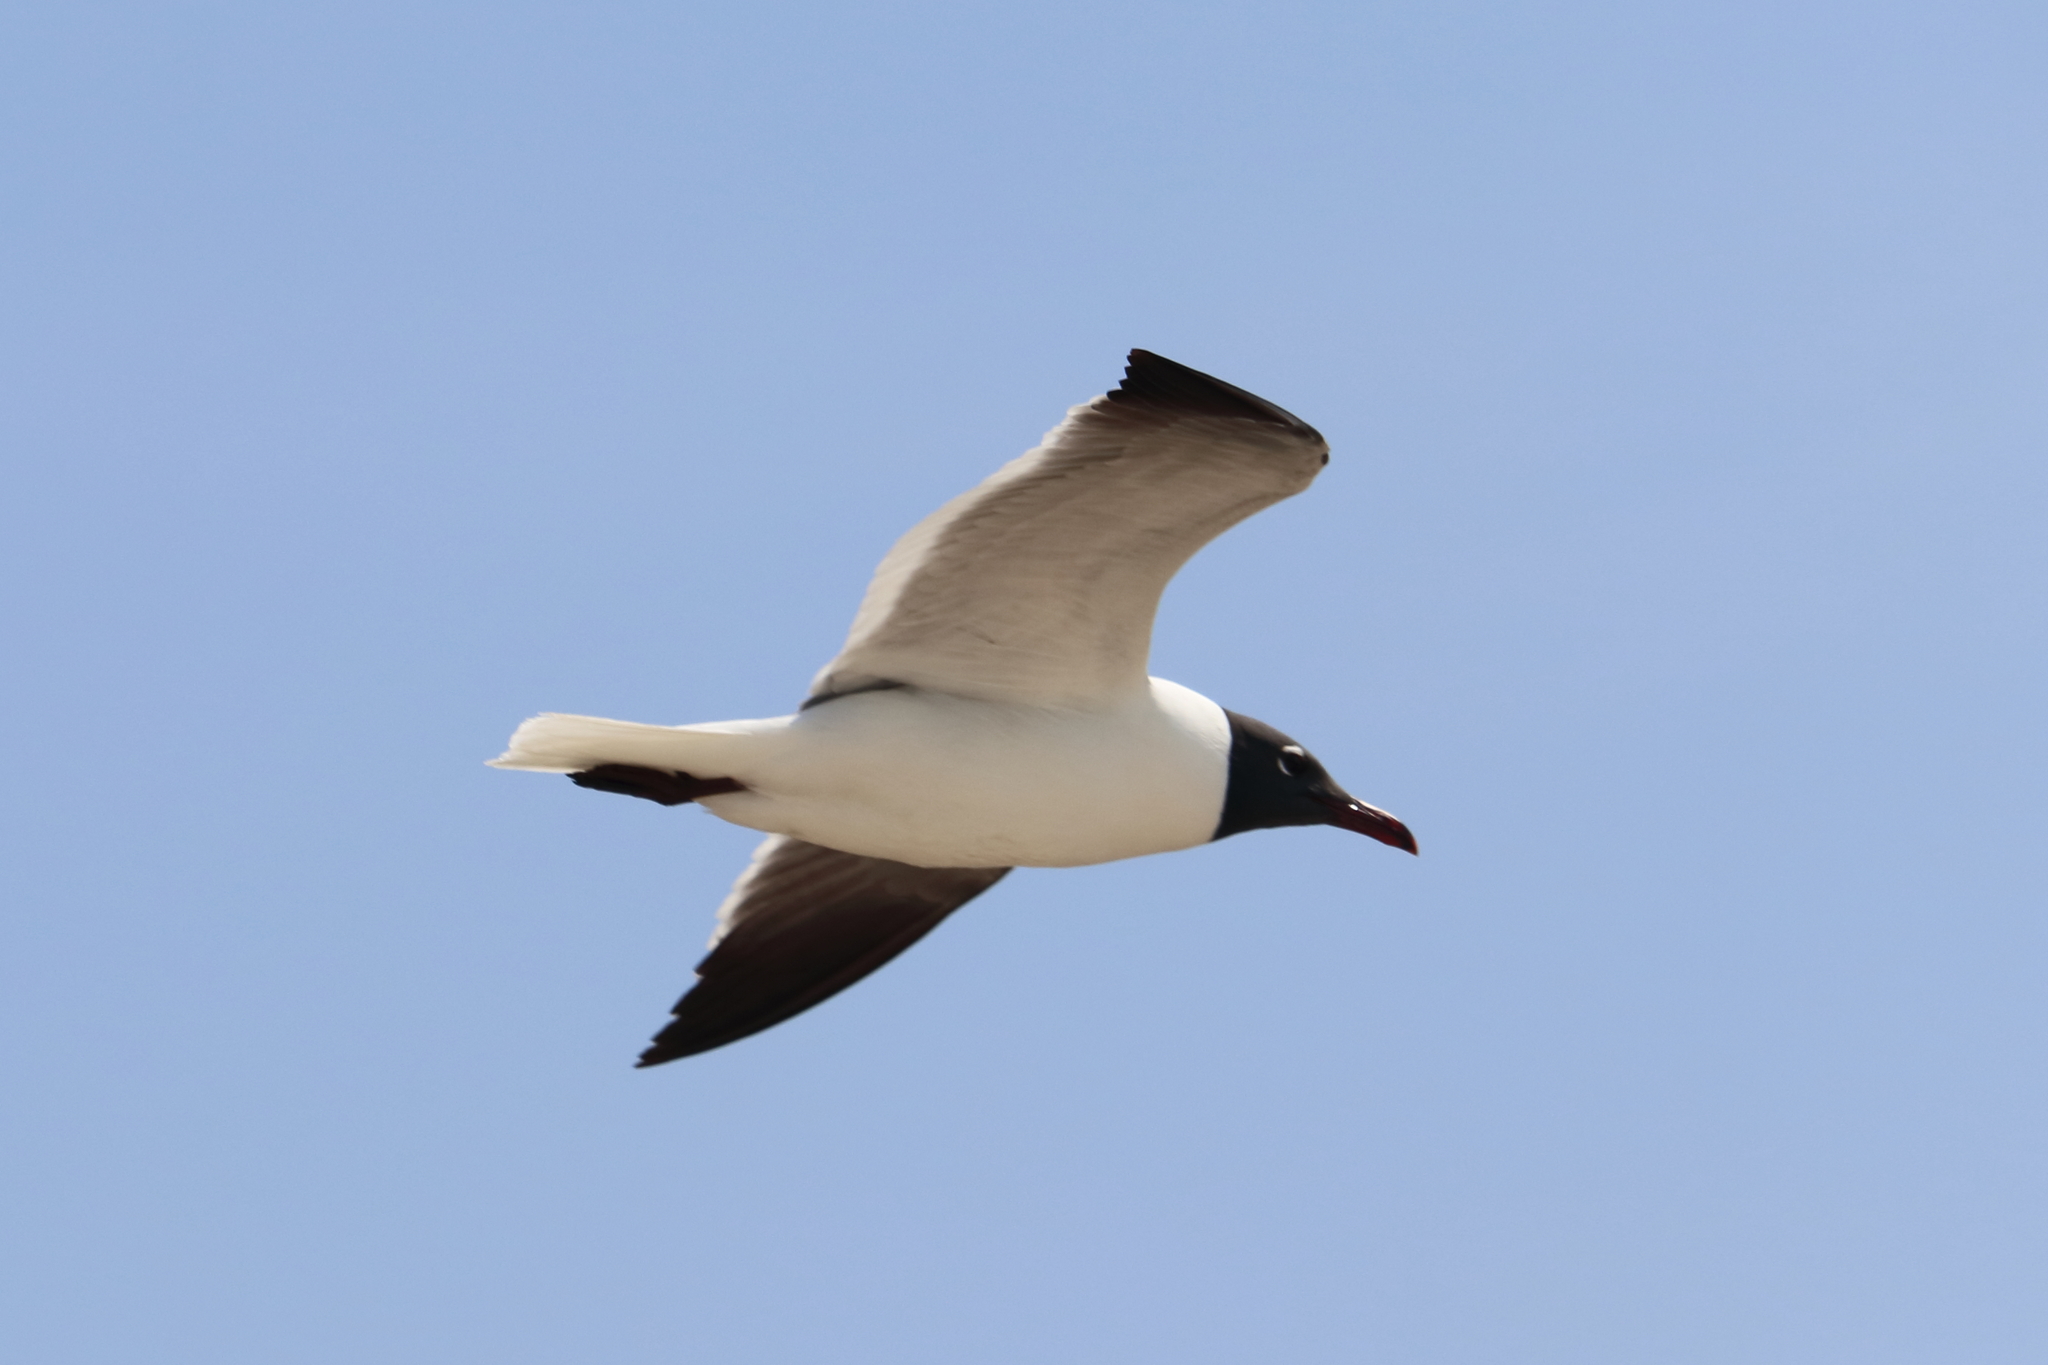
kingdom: Animalia
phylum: Chordata
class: Aves
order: Charadriiformes
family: Laridae
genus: Leucophaeus
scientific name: Leucophaeus atricilla
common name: Laughing gull
